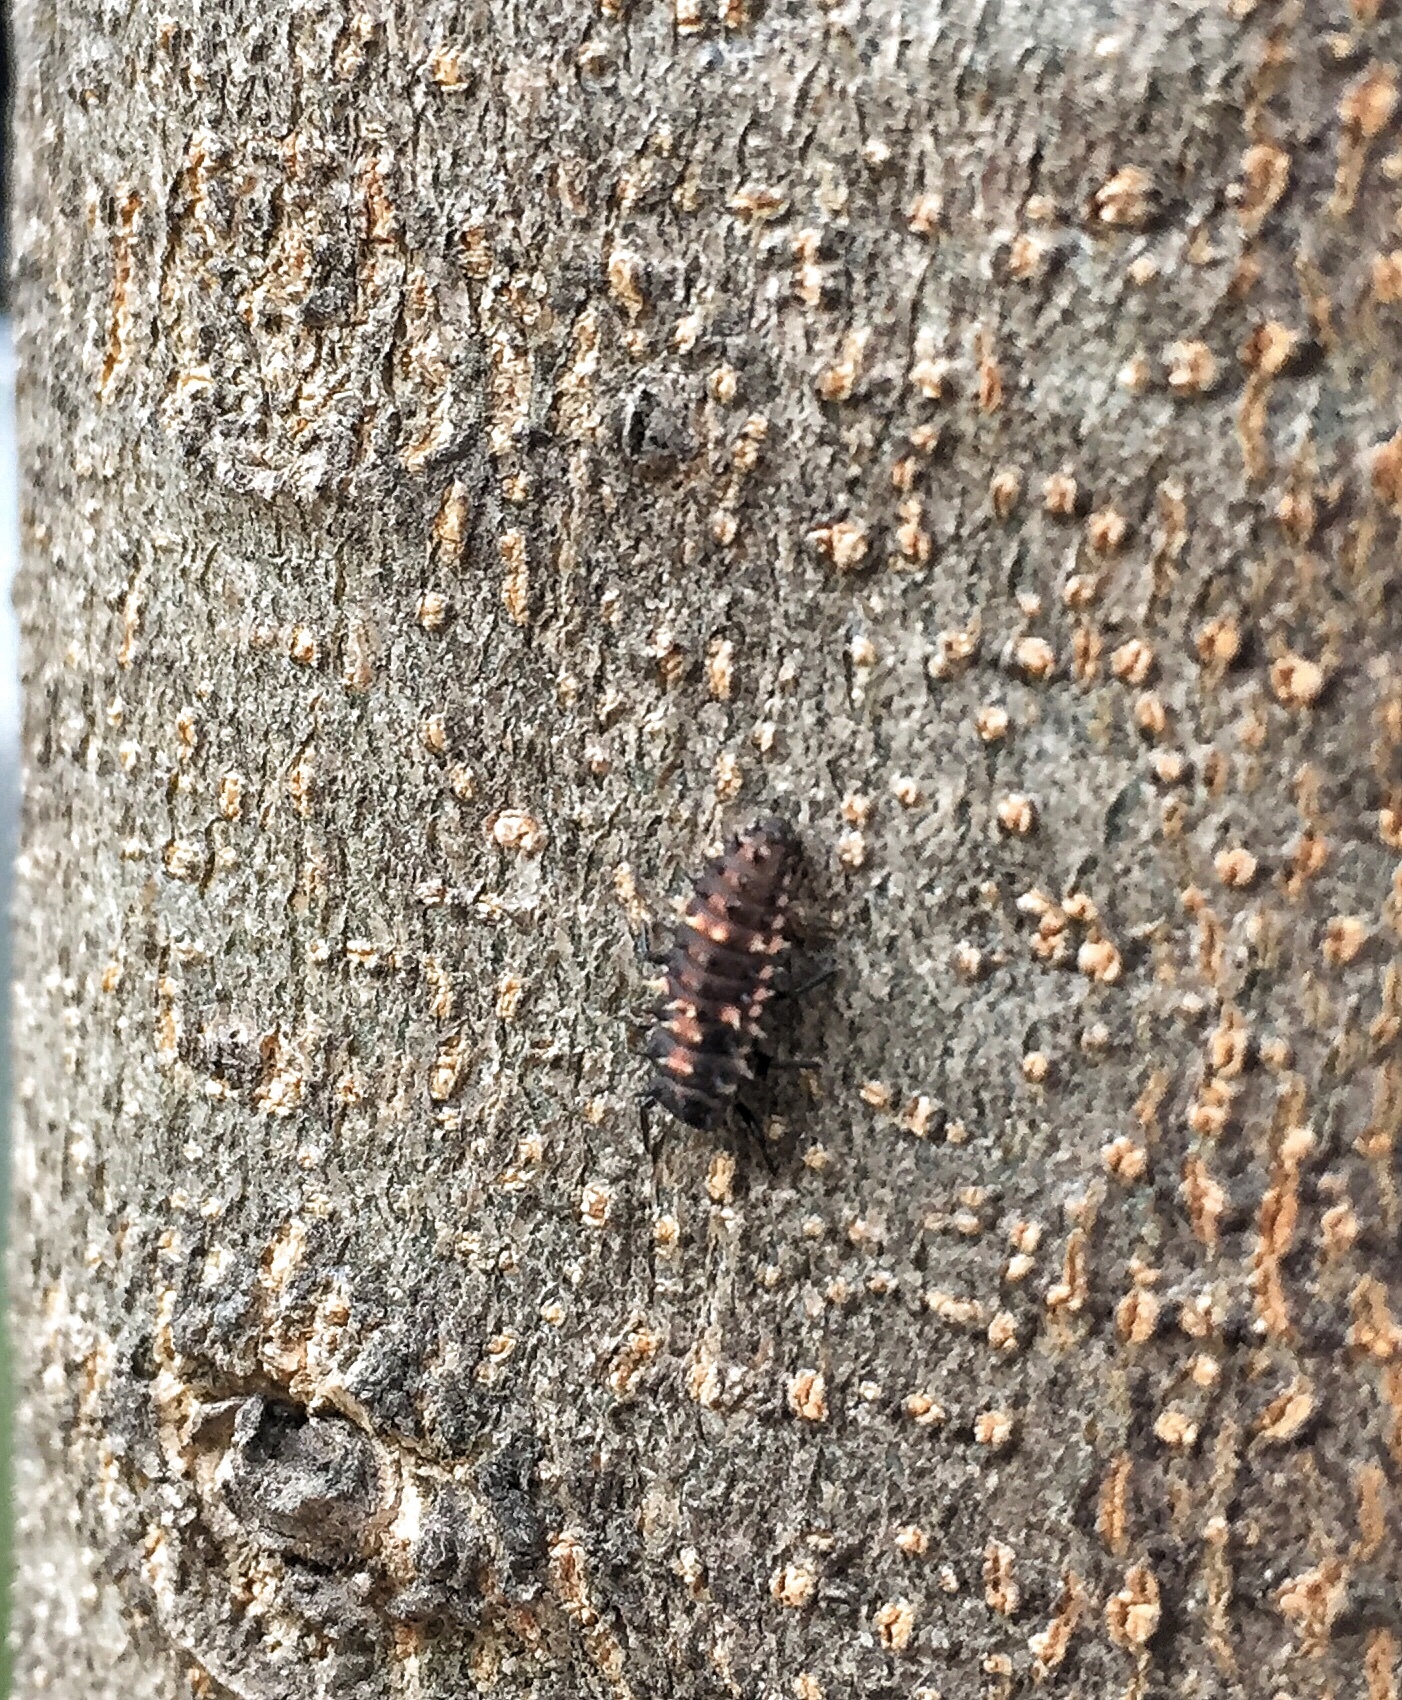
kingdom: Animalia
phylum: Arthropoda
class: Insecta
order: Coleoptera
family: Coccinellidae
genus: Cheilomenes
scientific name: Cheilomenes sexmaculata
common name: Ladybird beetle
